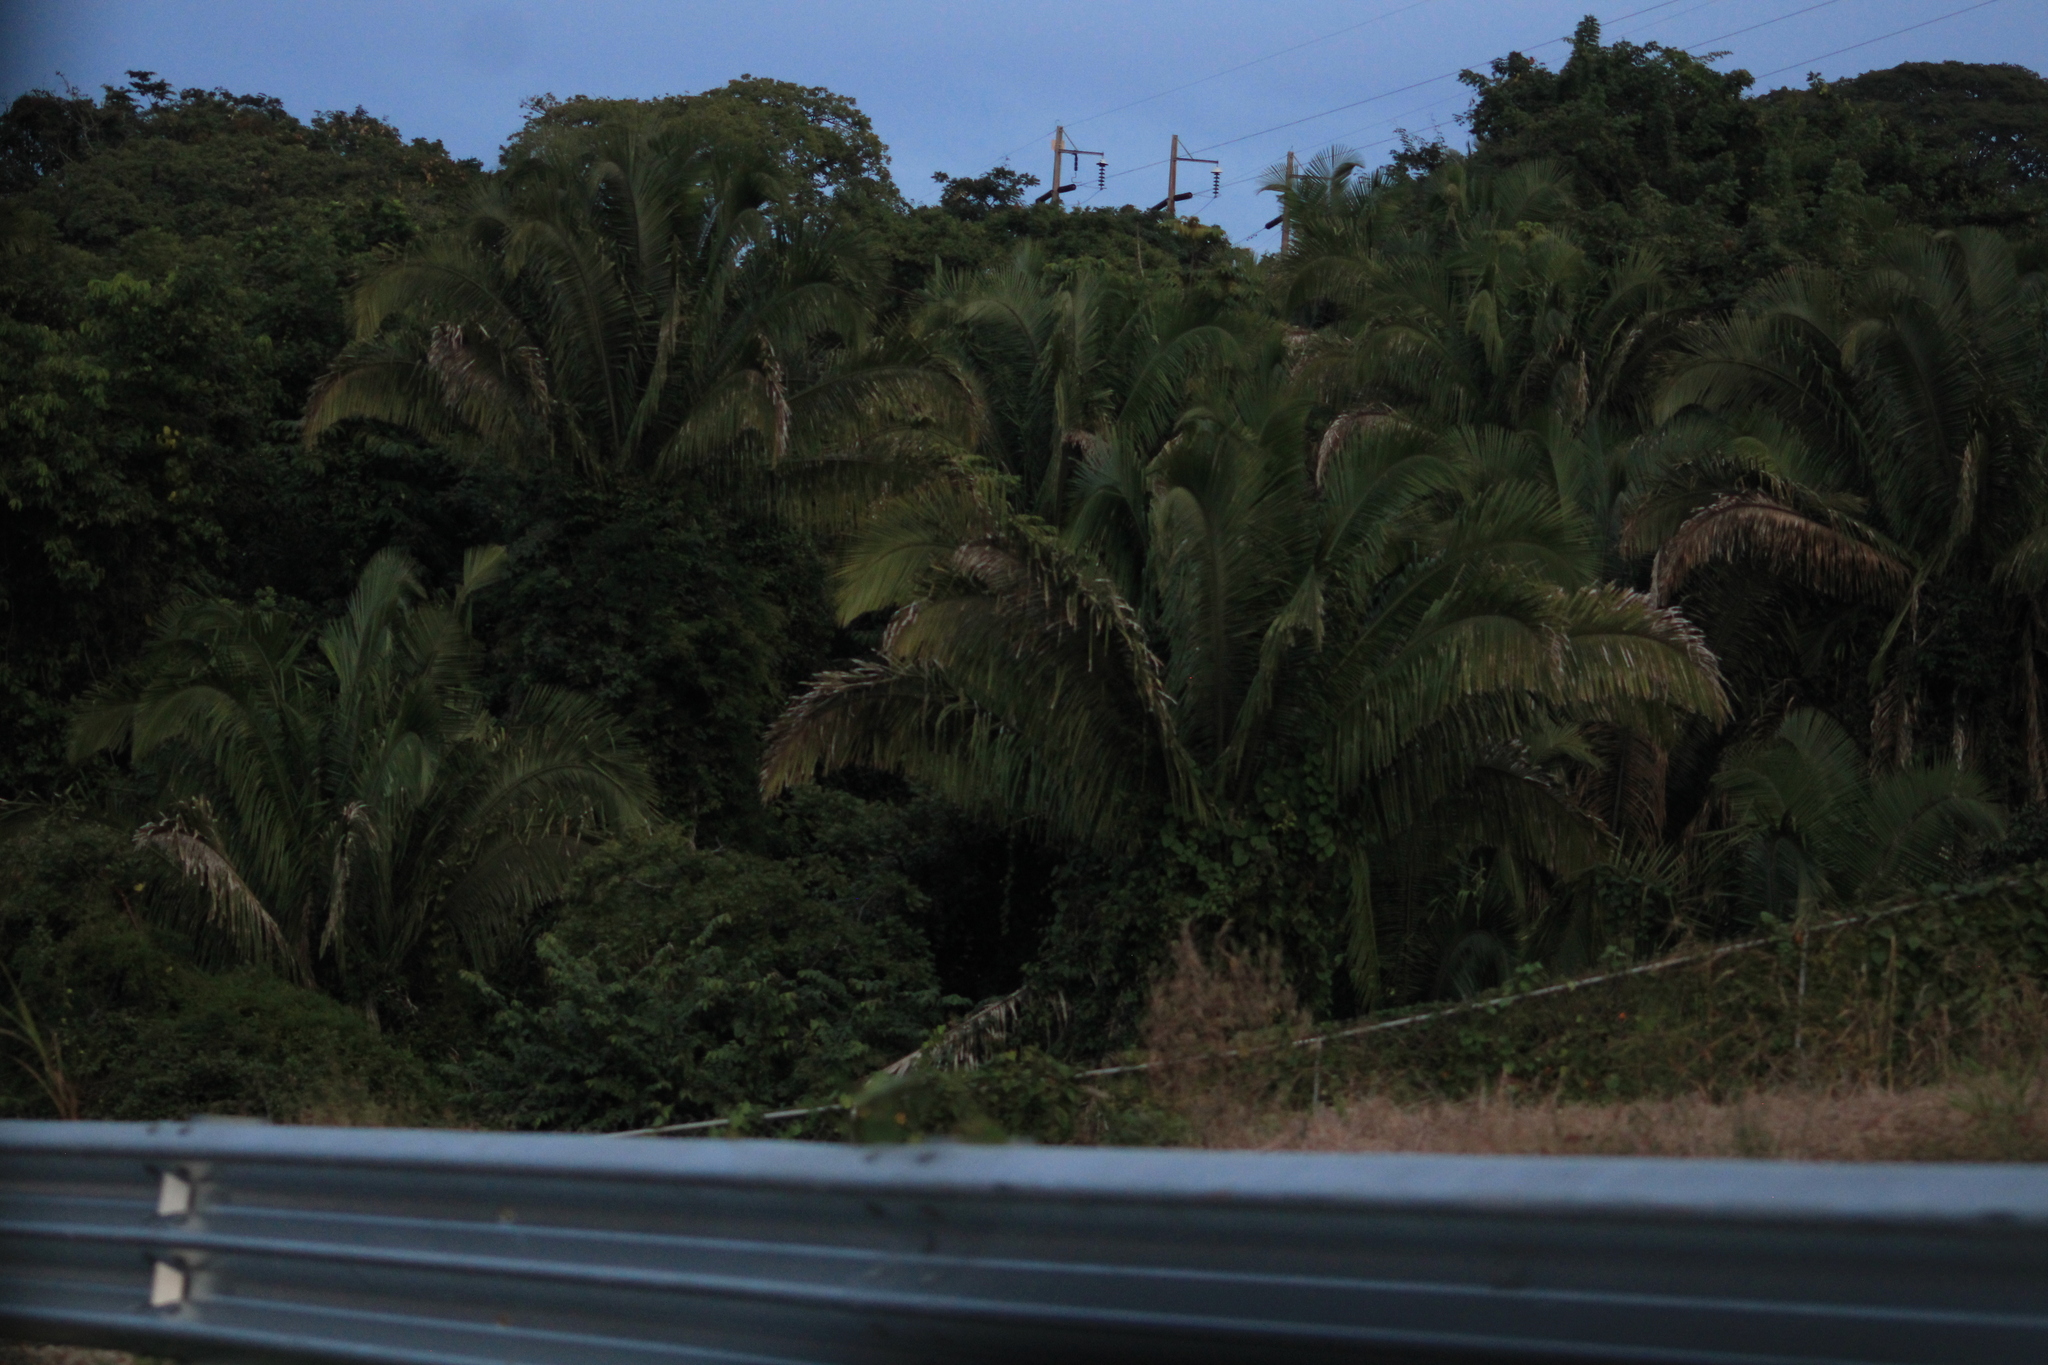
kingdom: Plantae
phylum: Tracheophyta
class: Liliopsida
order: Arecales
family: Arecaceae
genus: Attalea
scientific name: Attalea guacuyule
